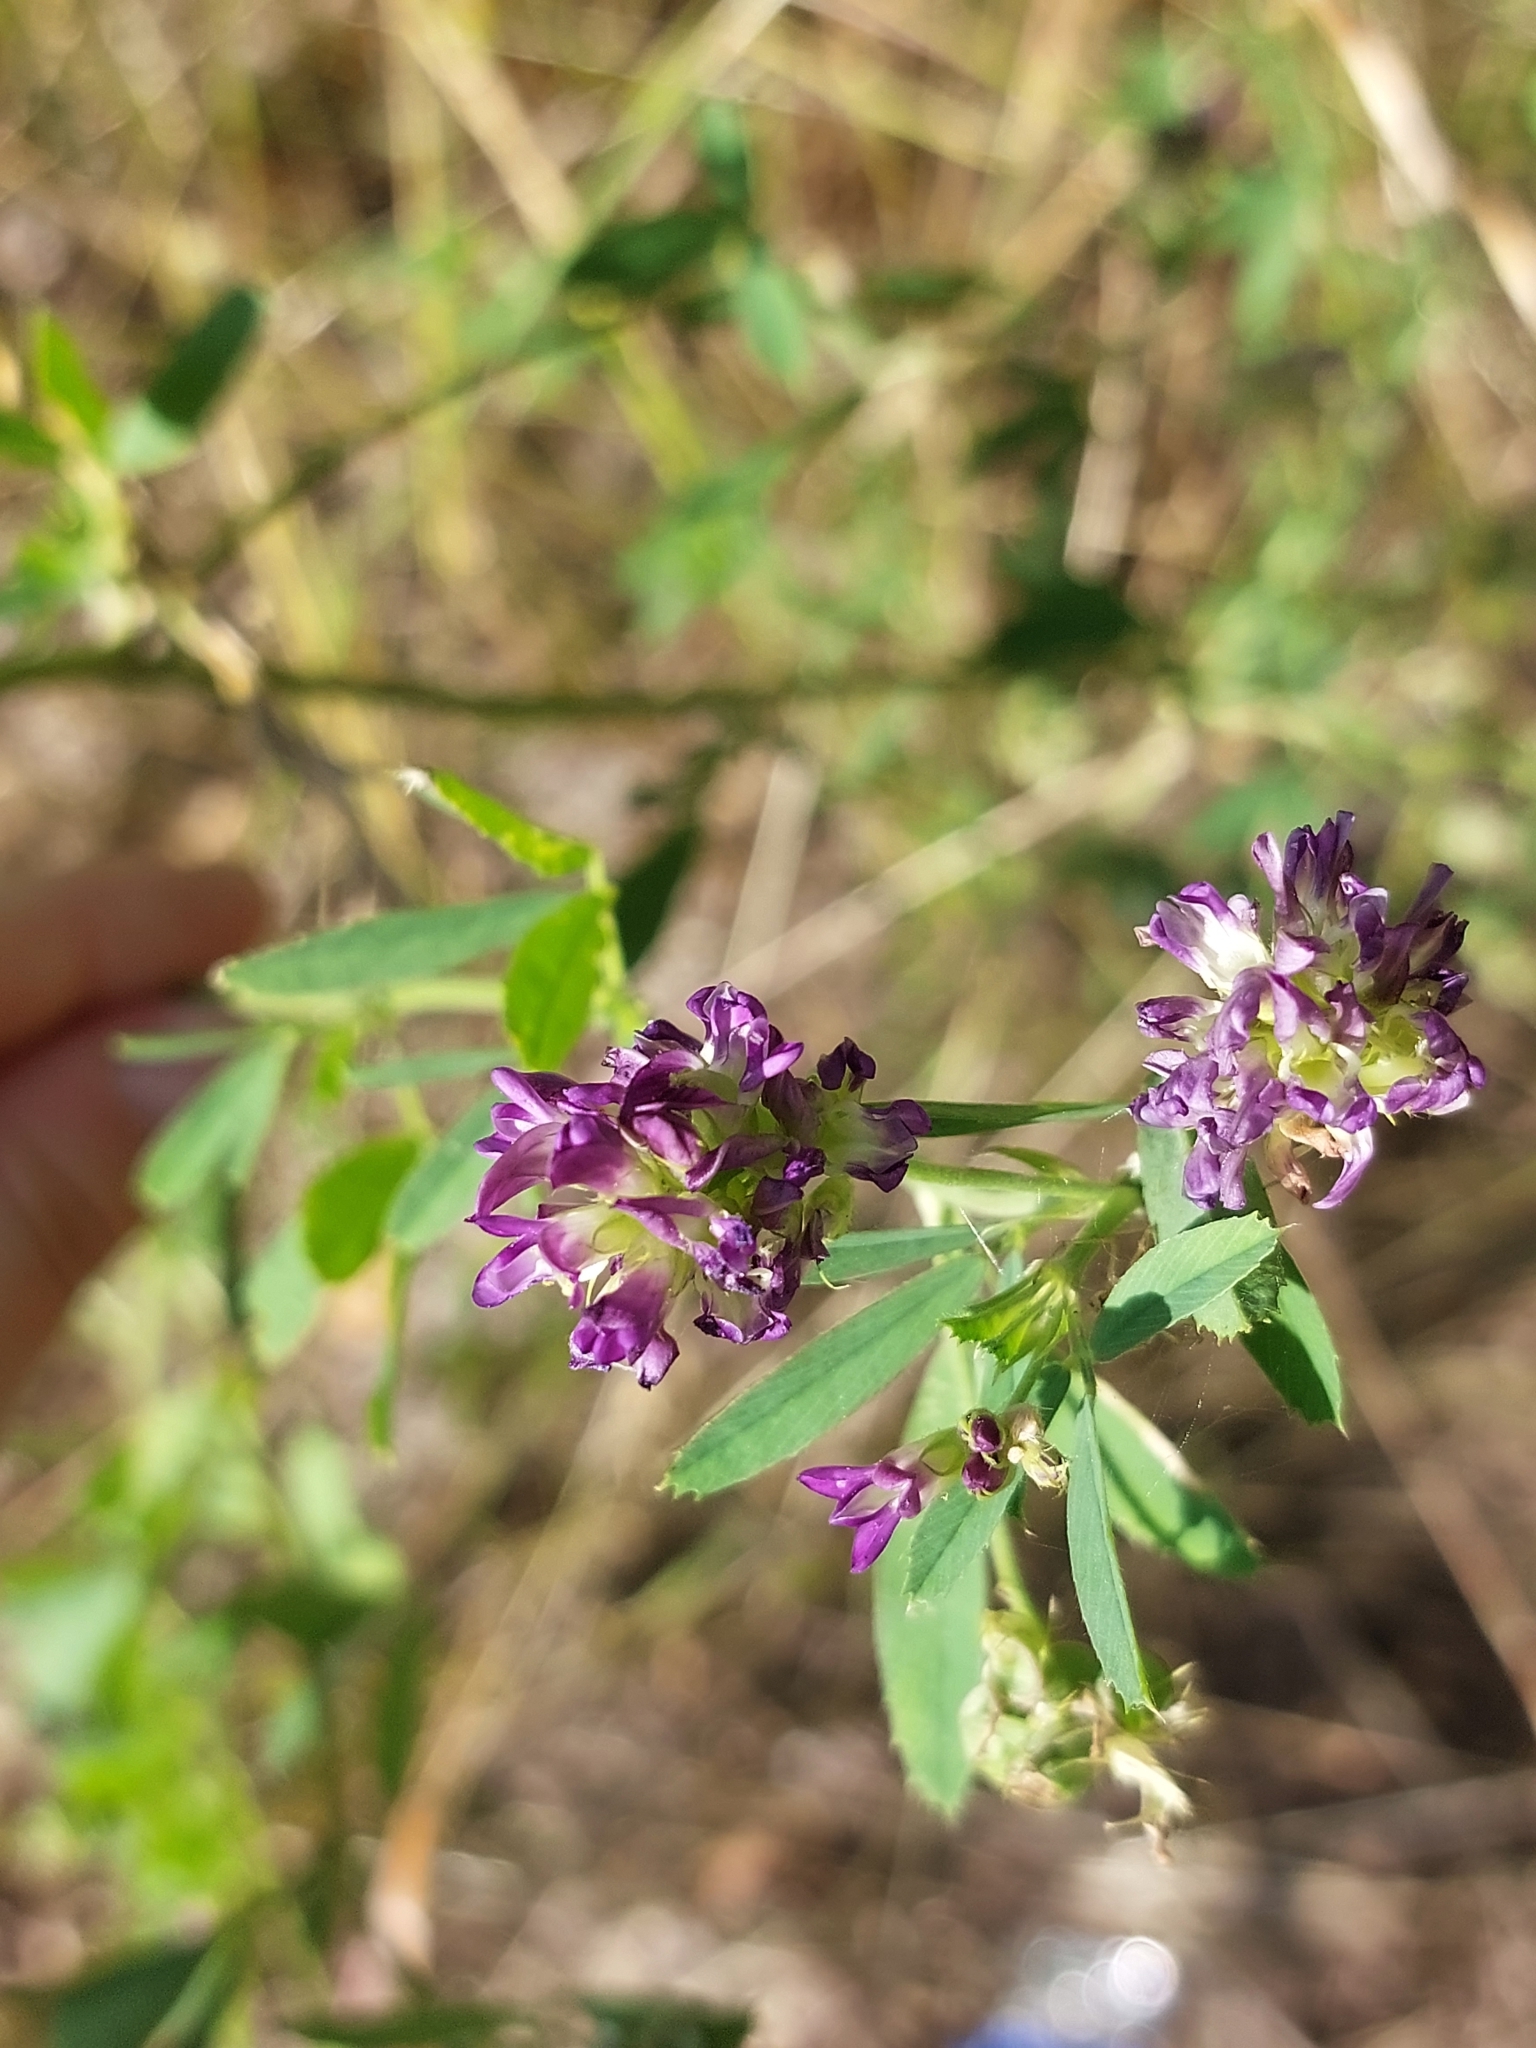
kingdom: Plantae
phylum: Tracheophyta
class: Magnoliopsida
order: Fabales
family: Fabaceae
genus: Medicago
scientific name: Medicago sativa
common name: Alfalfa
